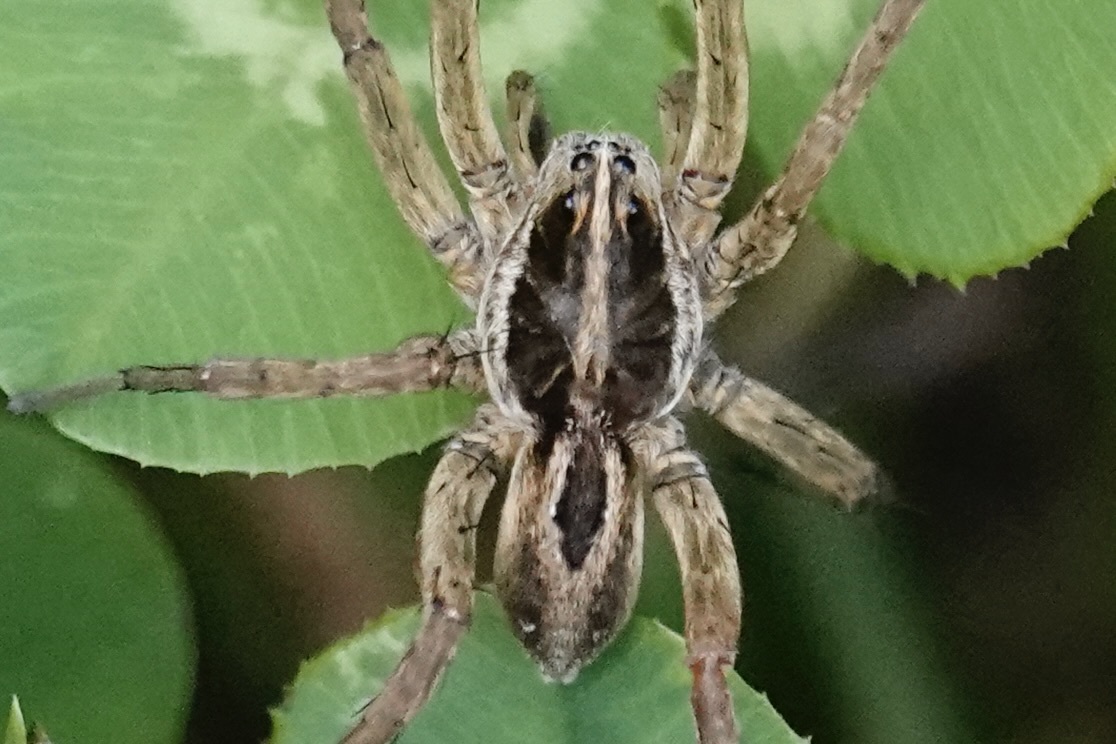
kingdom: Animalia
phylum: Arthropoda
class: Arachnida
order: Araneae
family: Lycosidae
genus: Tigrosa
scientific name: Tigrosa annexa
